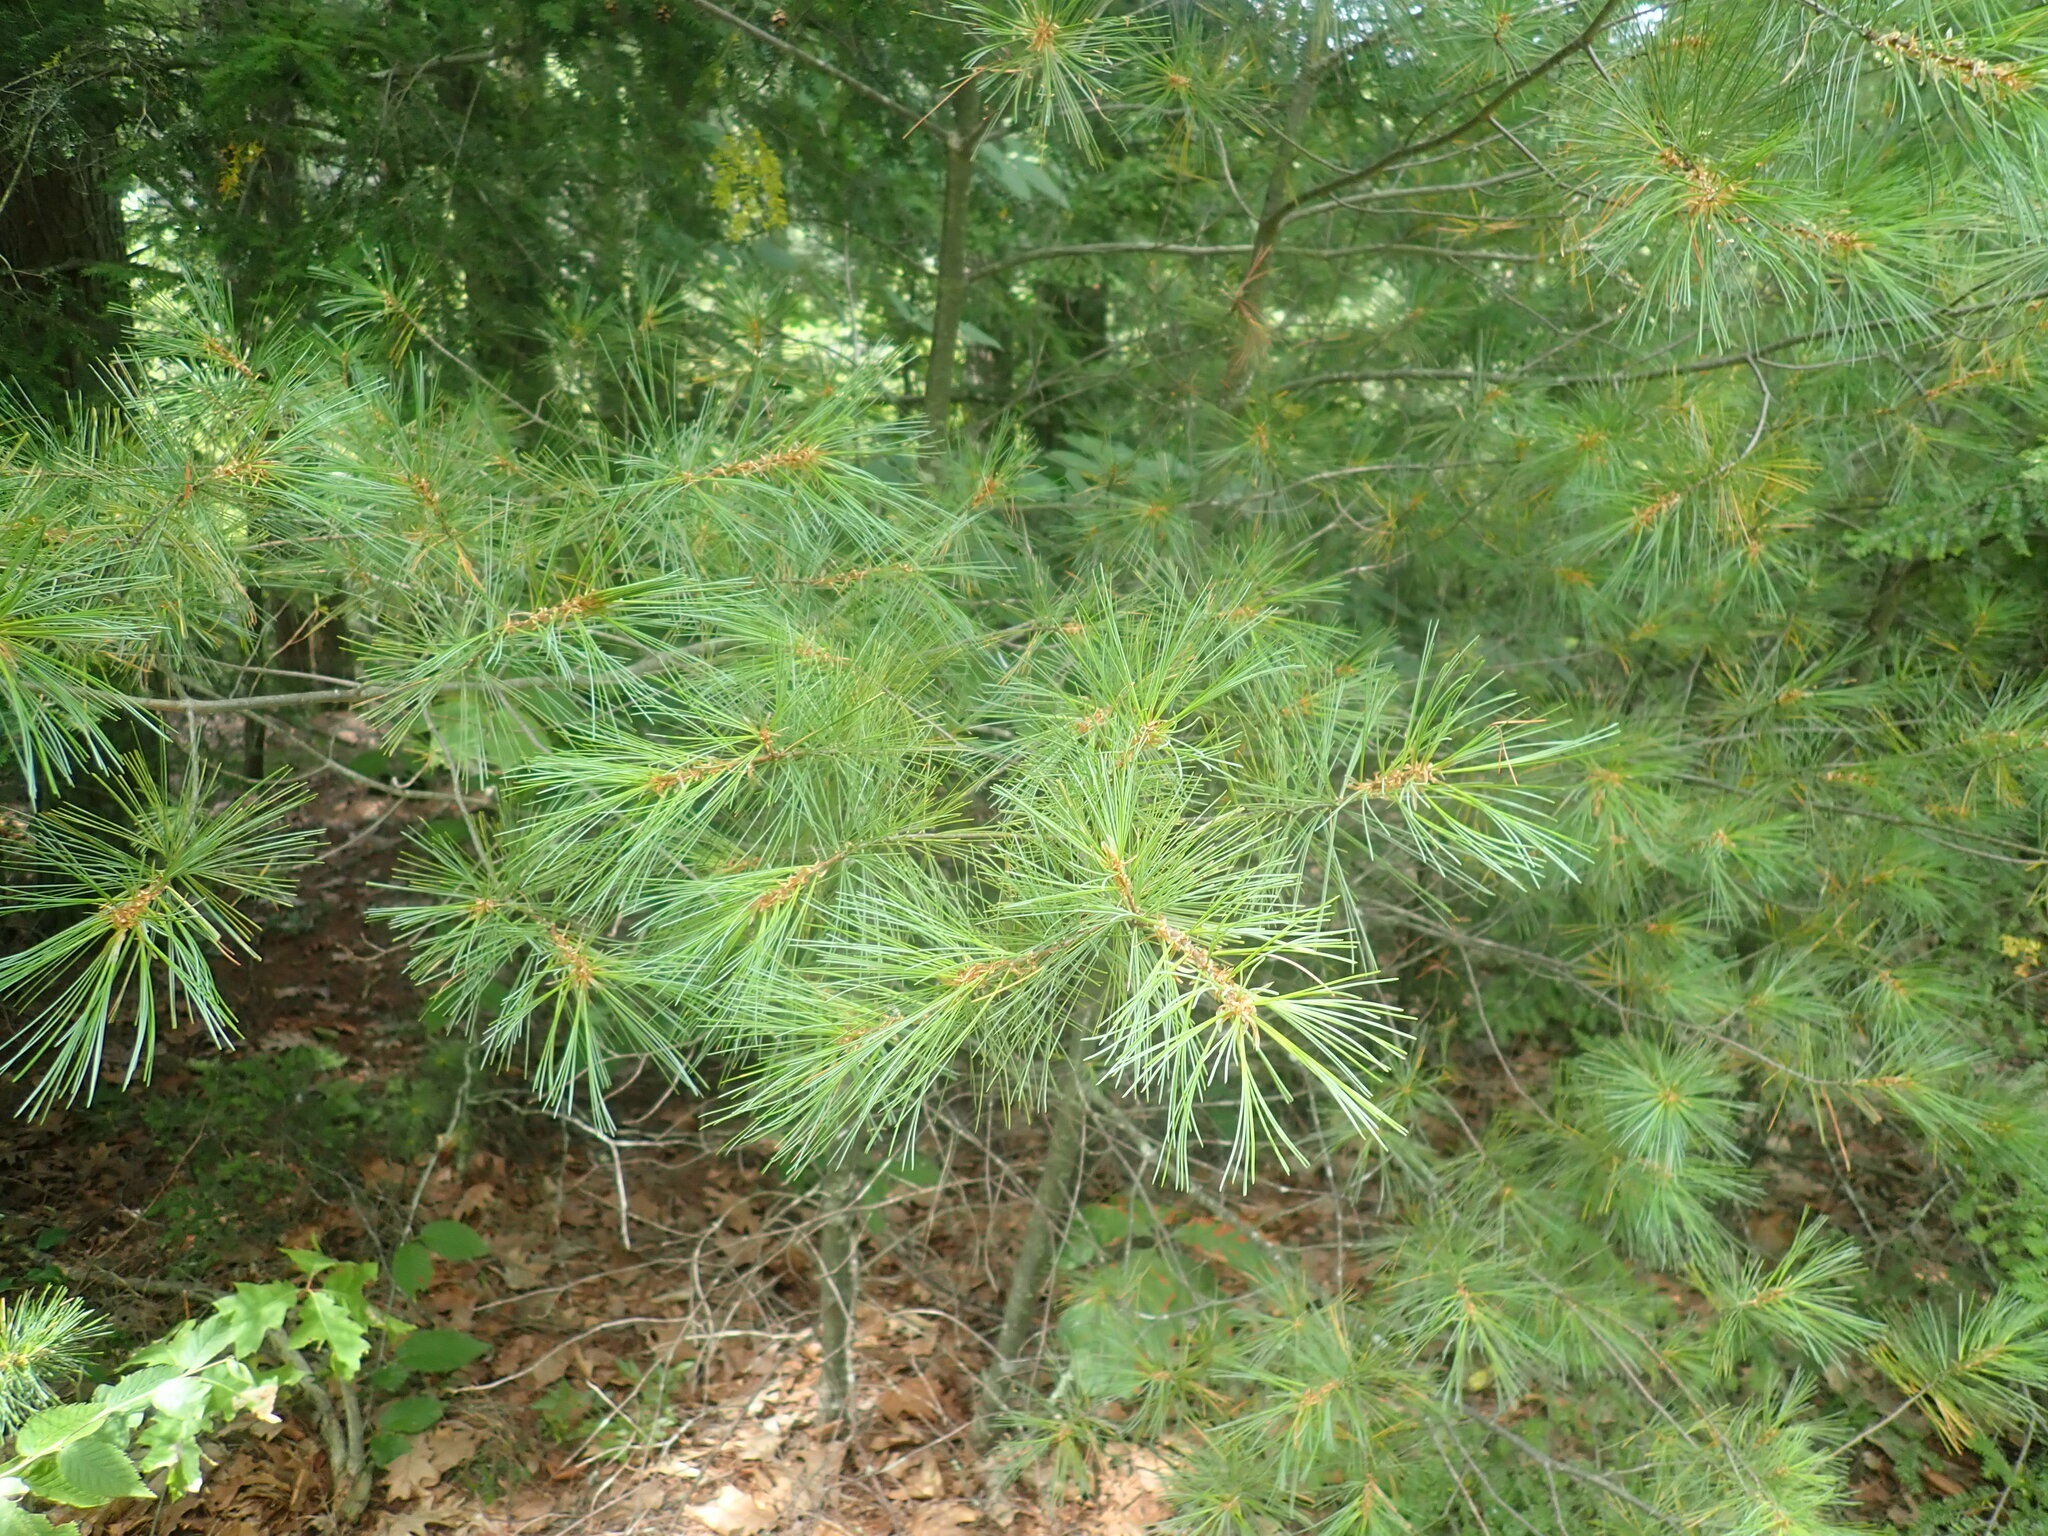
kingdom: Plantae
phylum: Tracheophyta
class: Pinopsida
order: Pinales
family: Pinaceae
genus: Pinus
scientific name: Pinus strobus
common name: Weymouth pine
